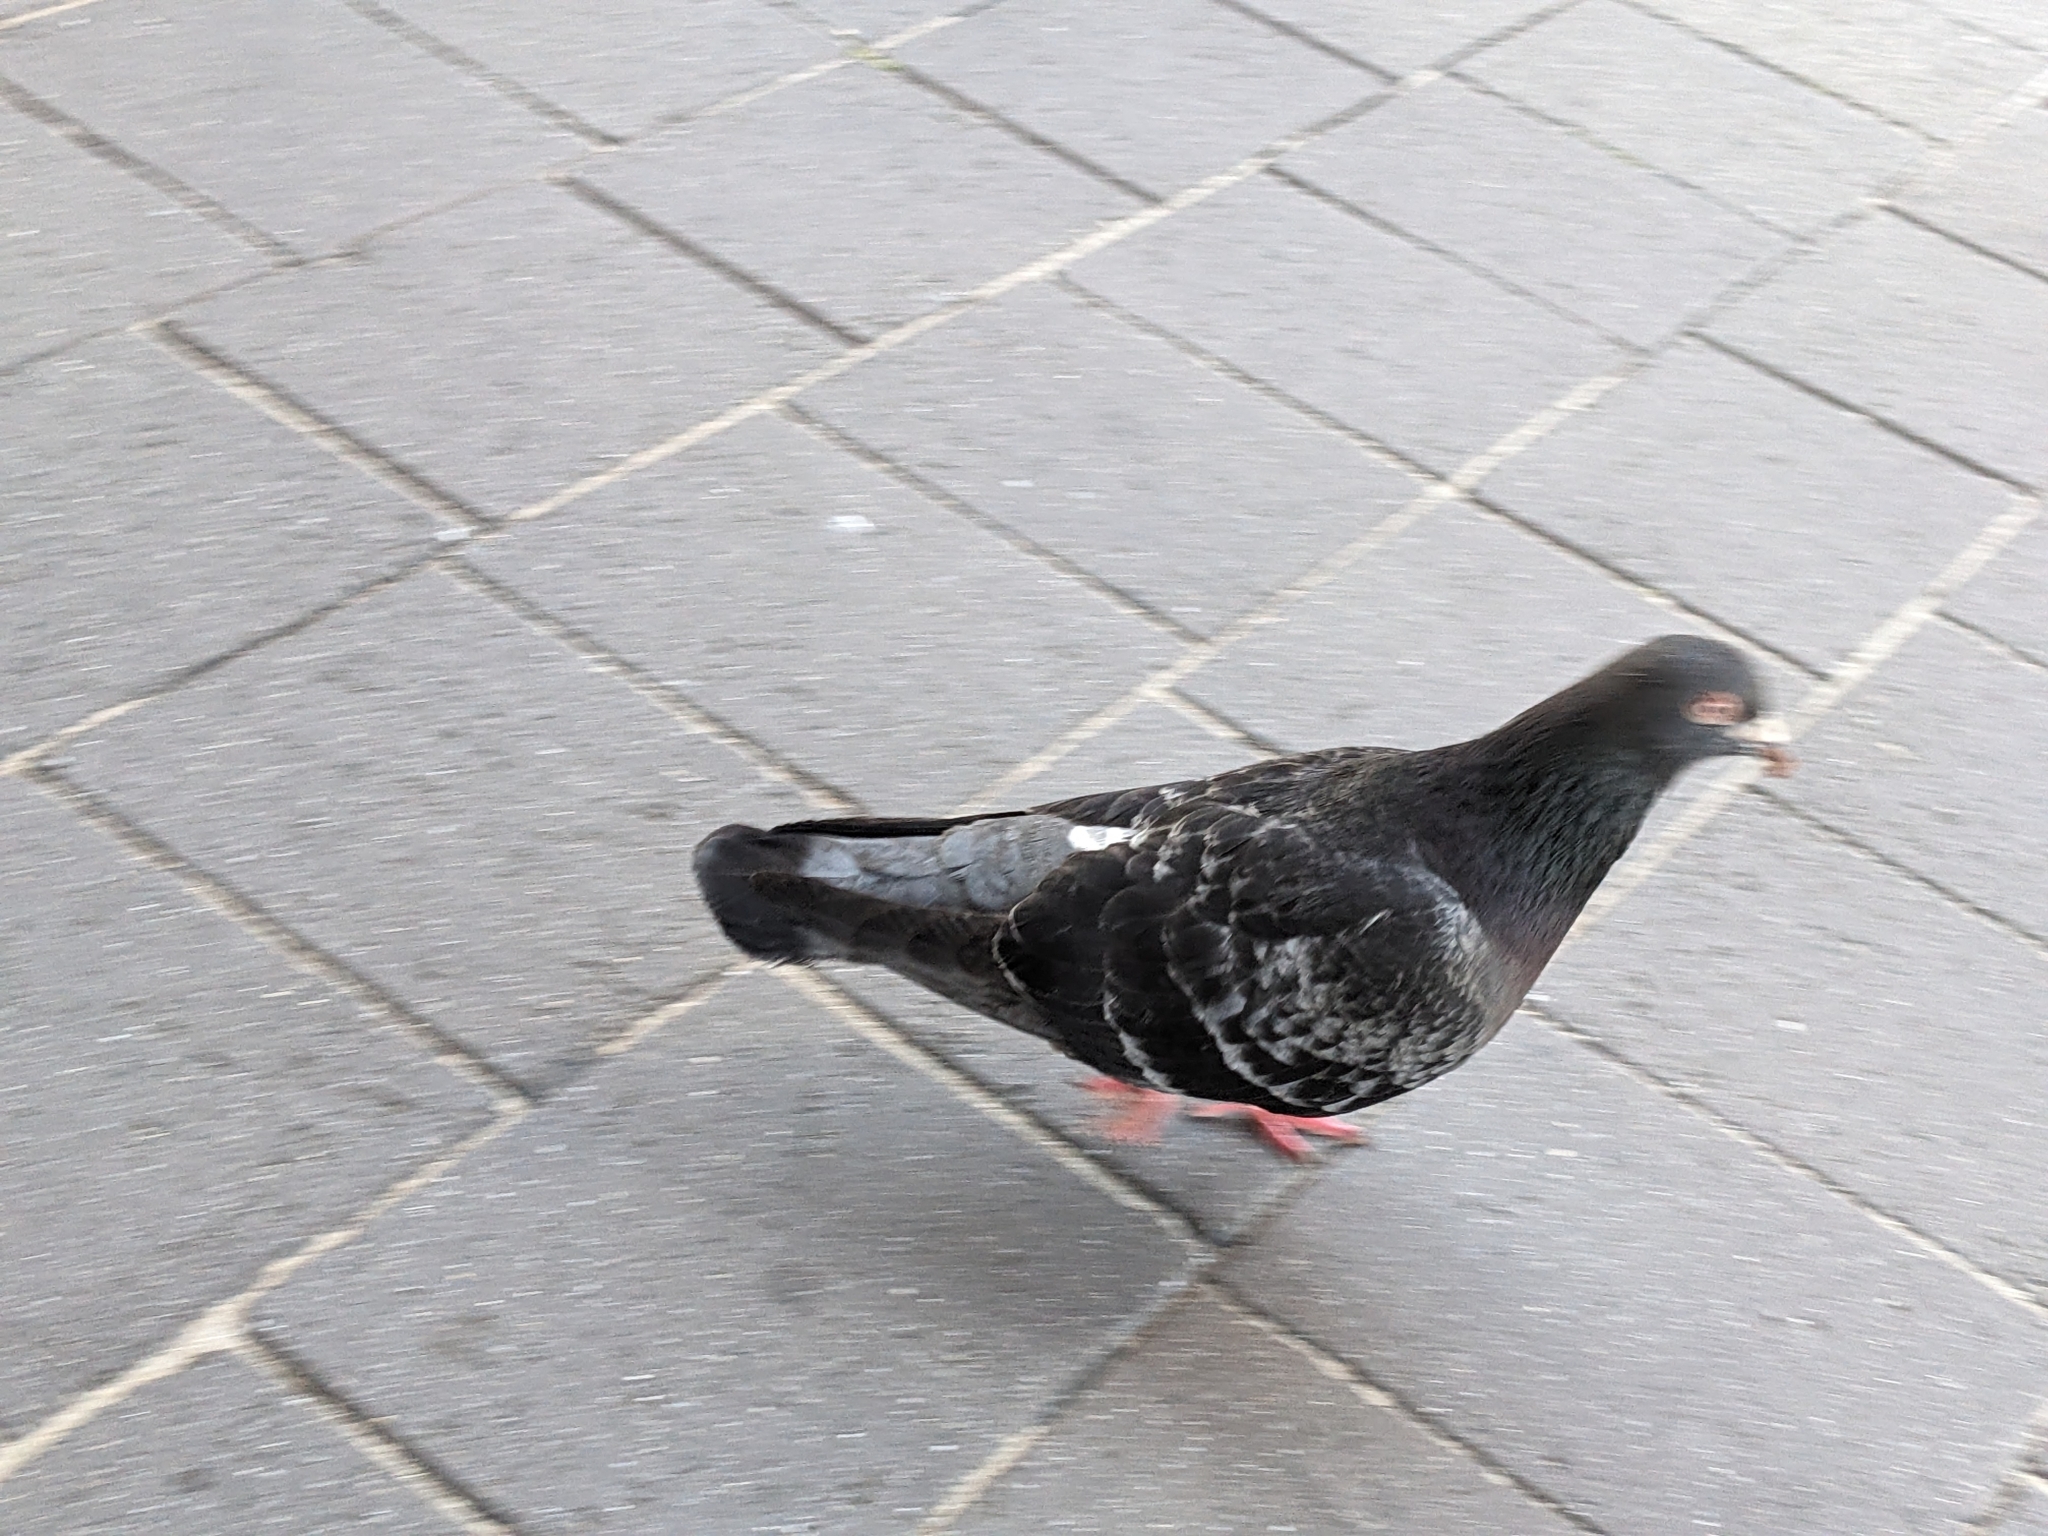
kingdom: Animalia
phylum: Chordata
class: Aves
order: Columbiformes
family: Columbidae
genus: Columba
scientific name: Columba livia
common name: Rock pigeon
